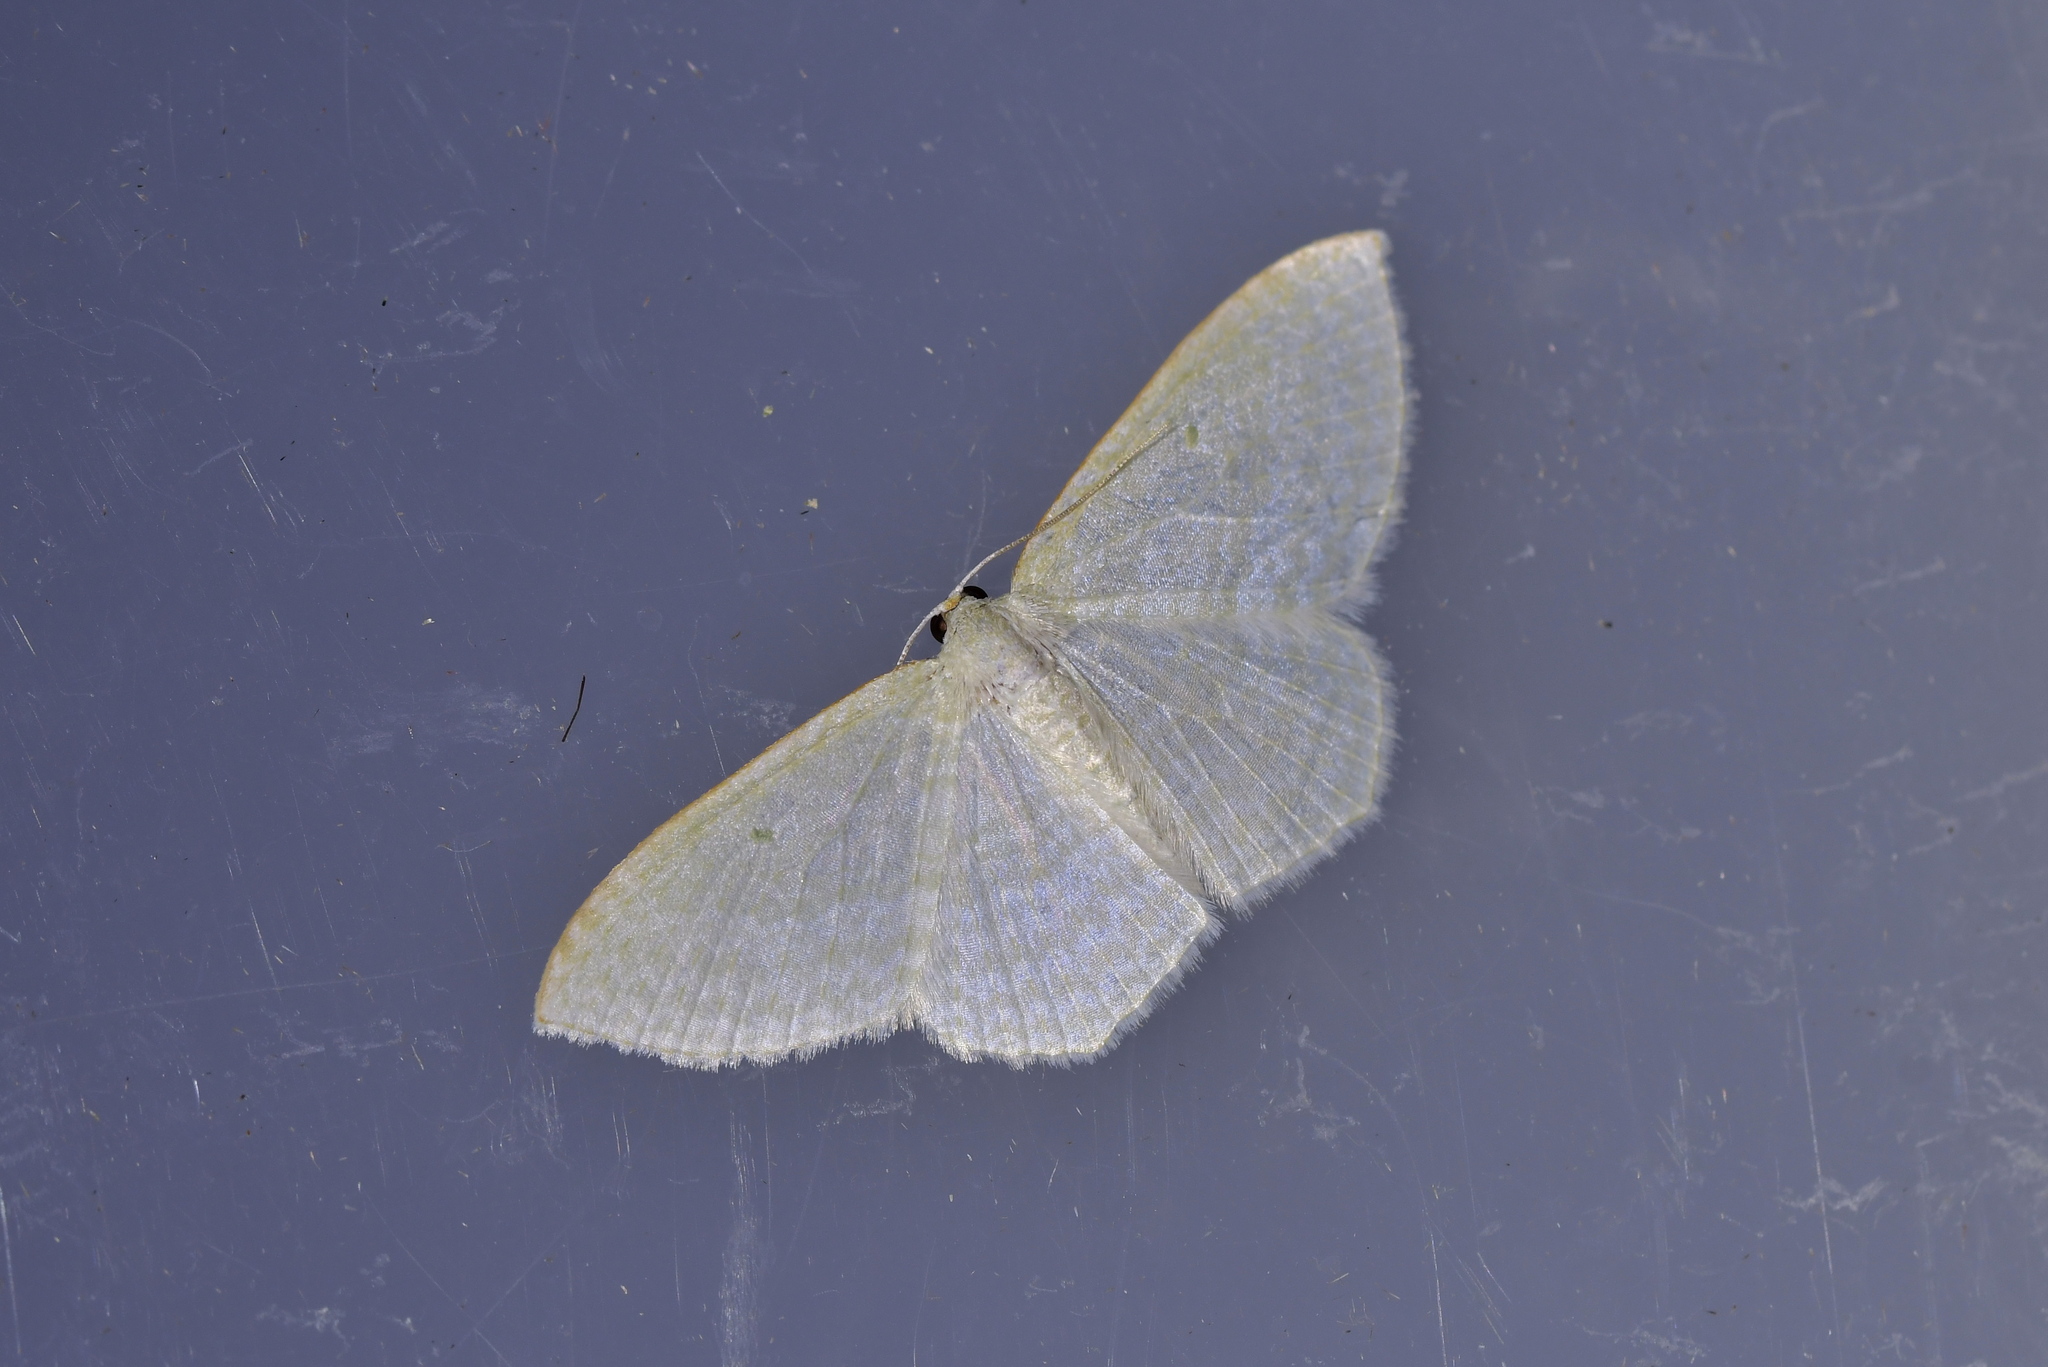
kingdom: Animalia
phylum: Arthropoda
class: Insecta
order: Lepidoptera
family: Geometridae
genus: Poecilasthena
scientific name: Poecilasthena pulchraria
